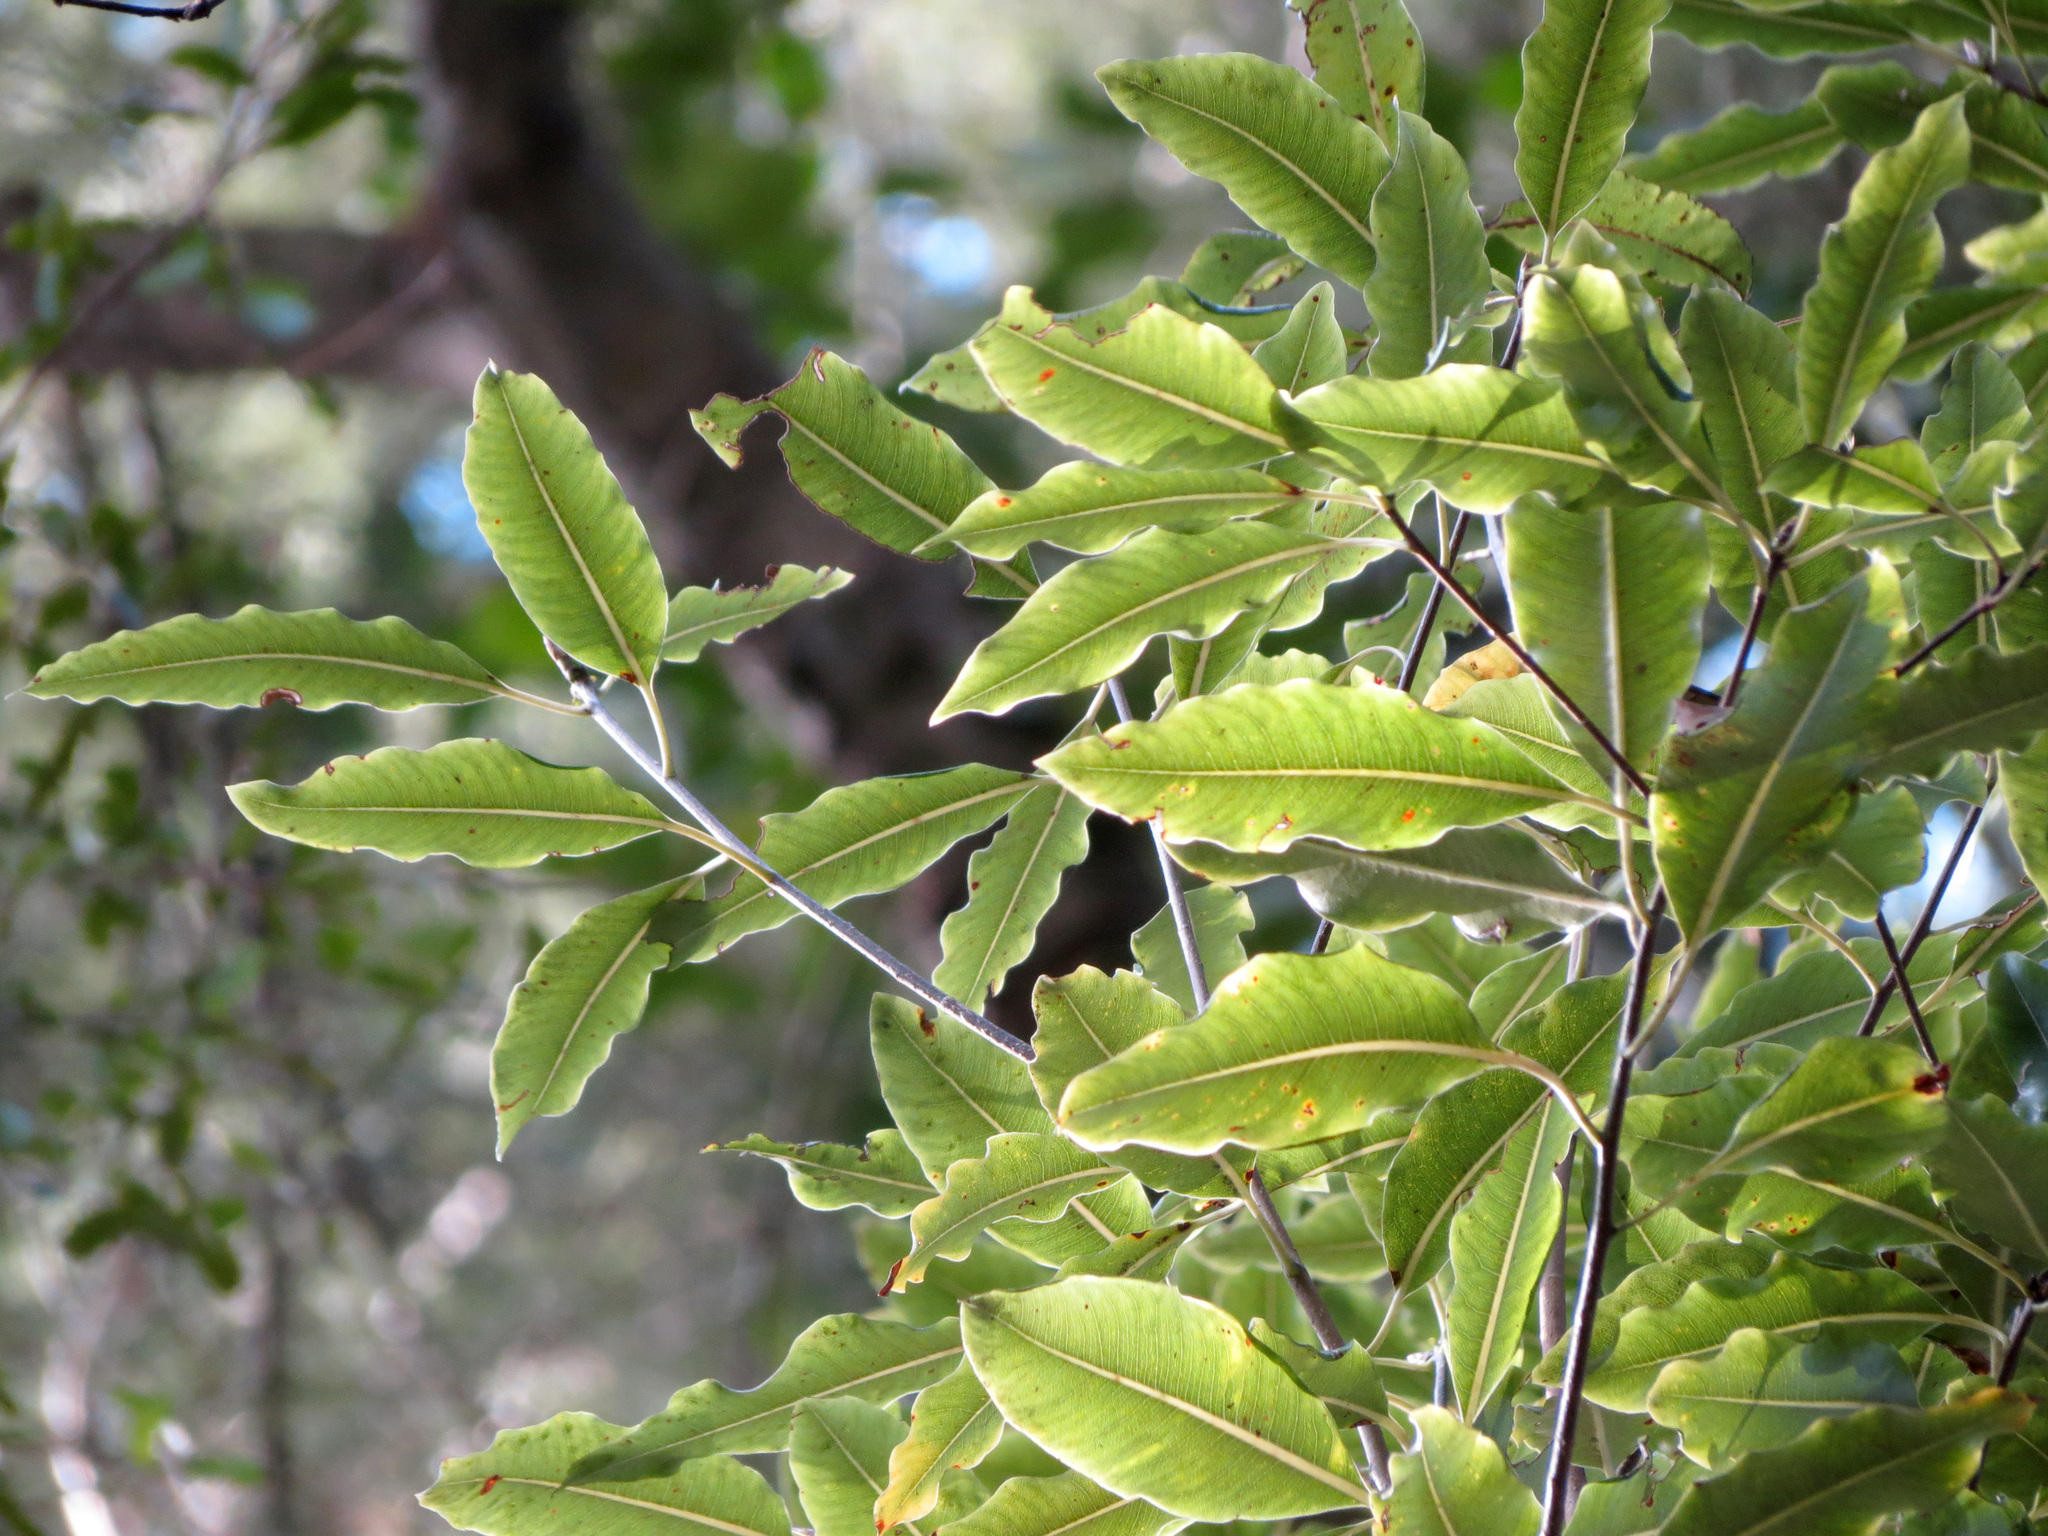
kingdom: Plantae
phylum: Tracheophyta
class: Magnoliopsida
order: Apiales
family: Pittosporaceae
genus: Pittosporum
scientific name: Pittosporum eugenioides
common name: Lemonwood
